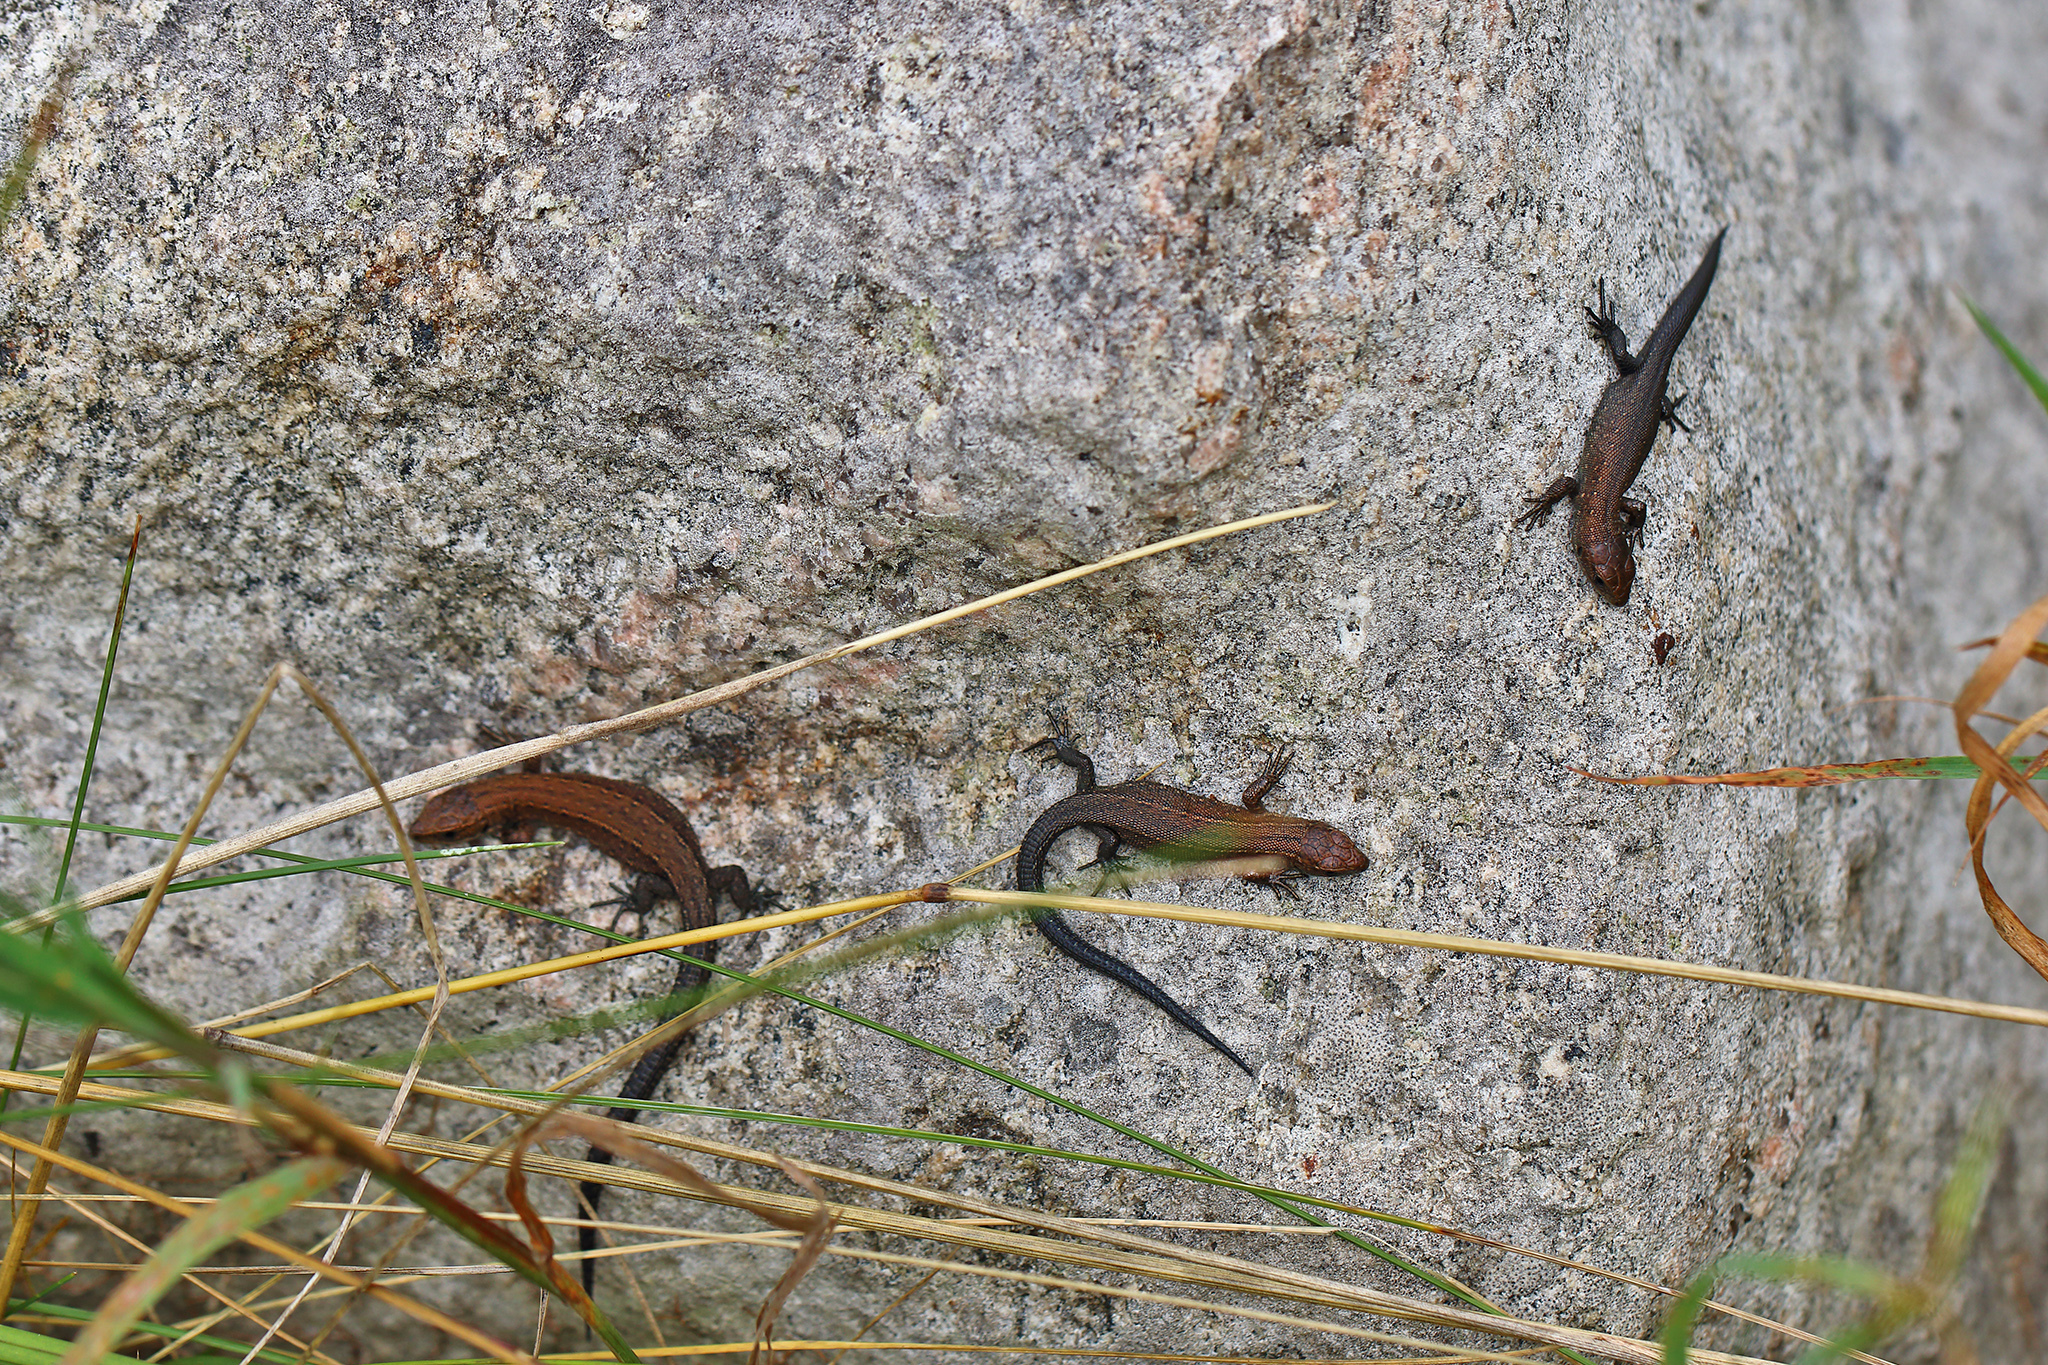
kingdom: Animalia
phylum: Chordata
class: Squamata
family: Lacertidae
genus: Zootoca
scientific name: Zootoca vivipara
